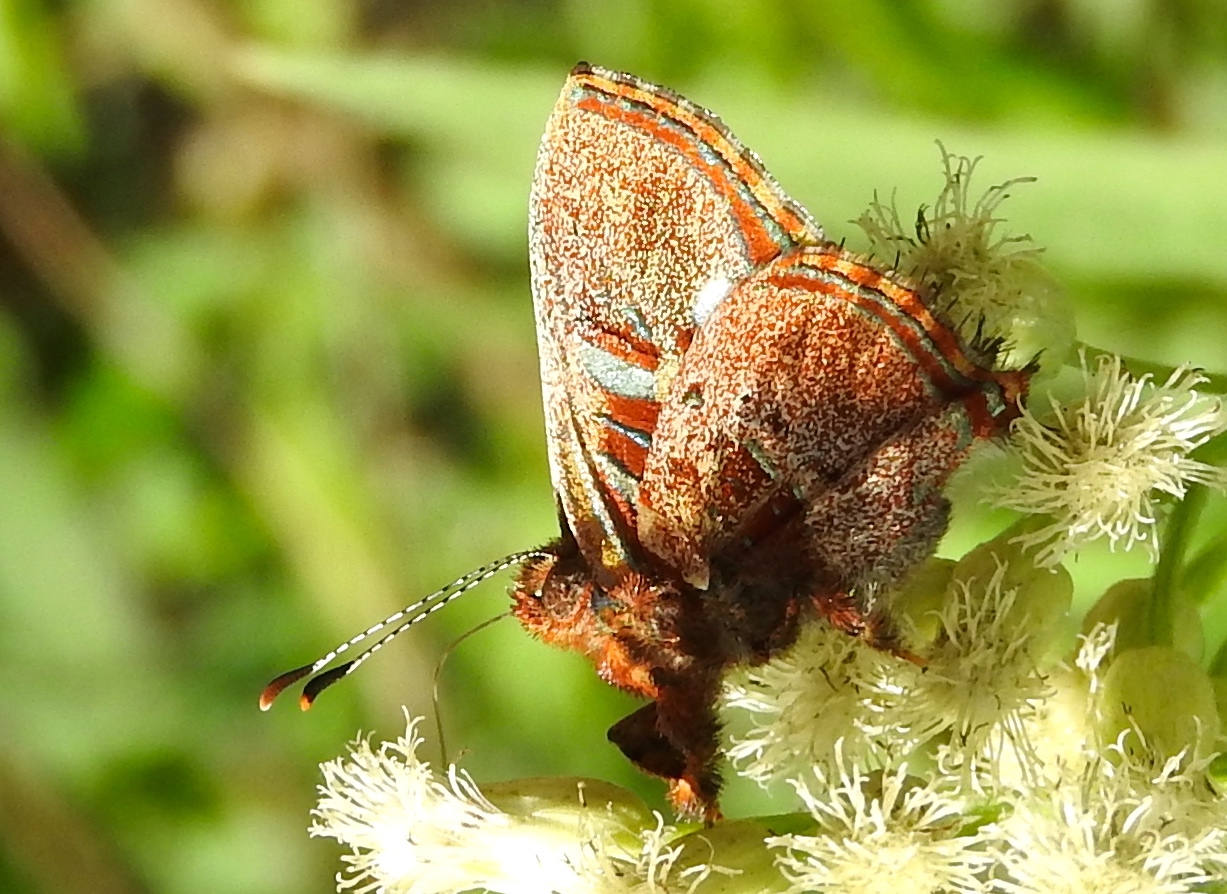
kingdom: Animalia
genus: Anteros
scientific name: Anteros carausius
